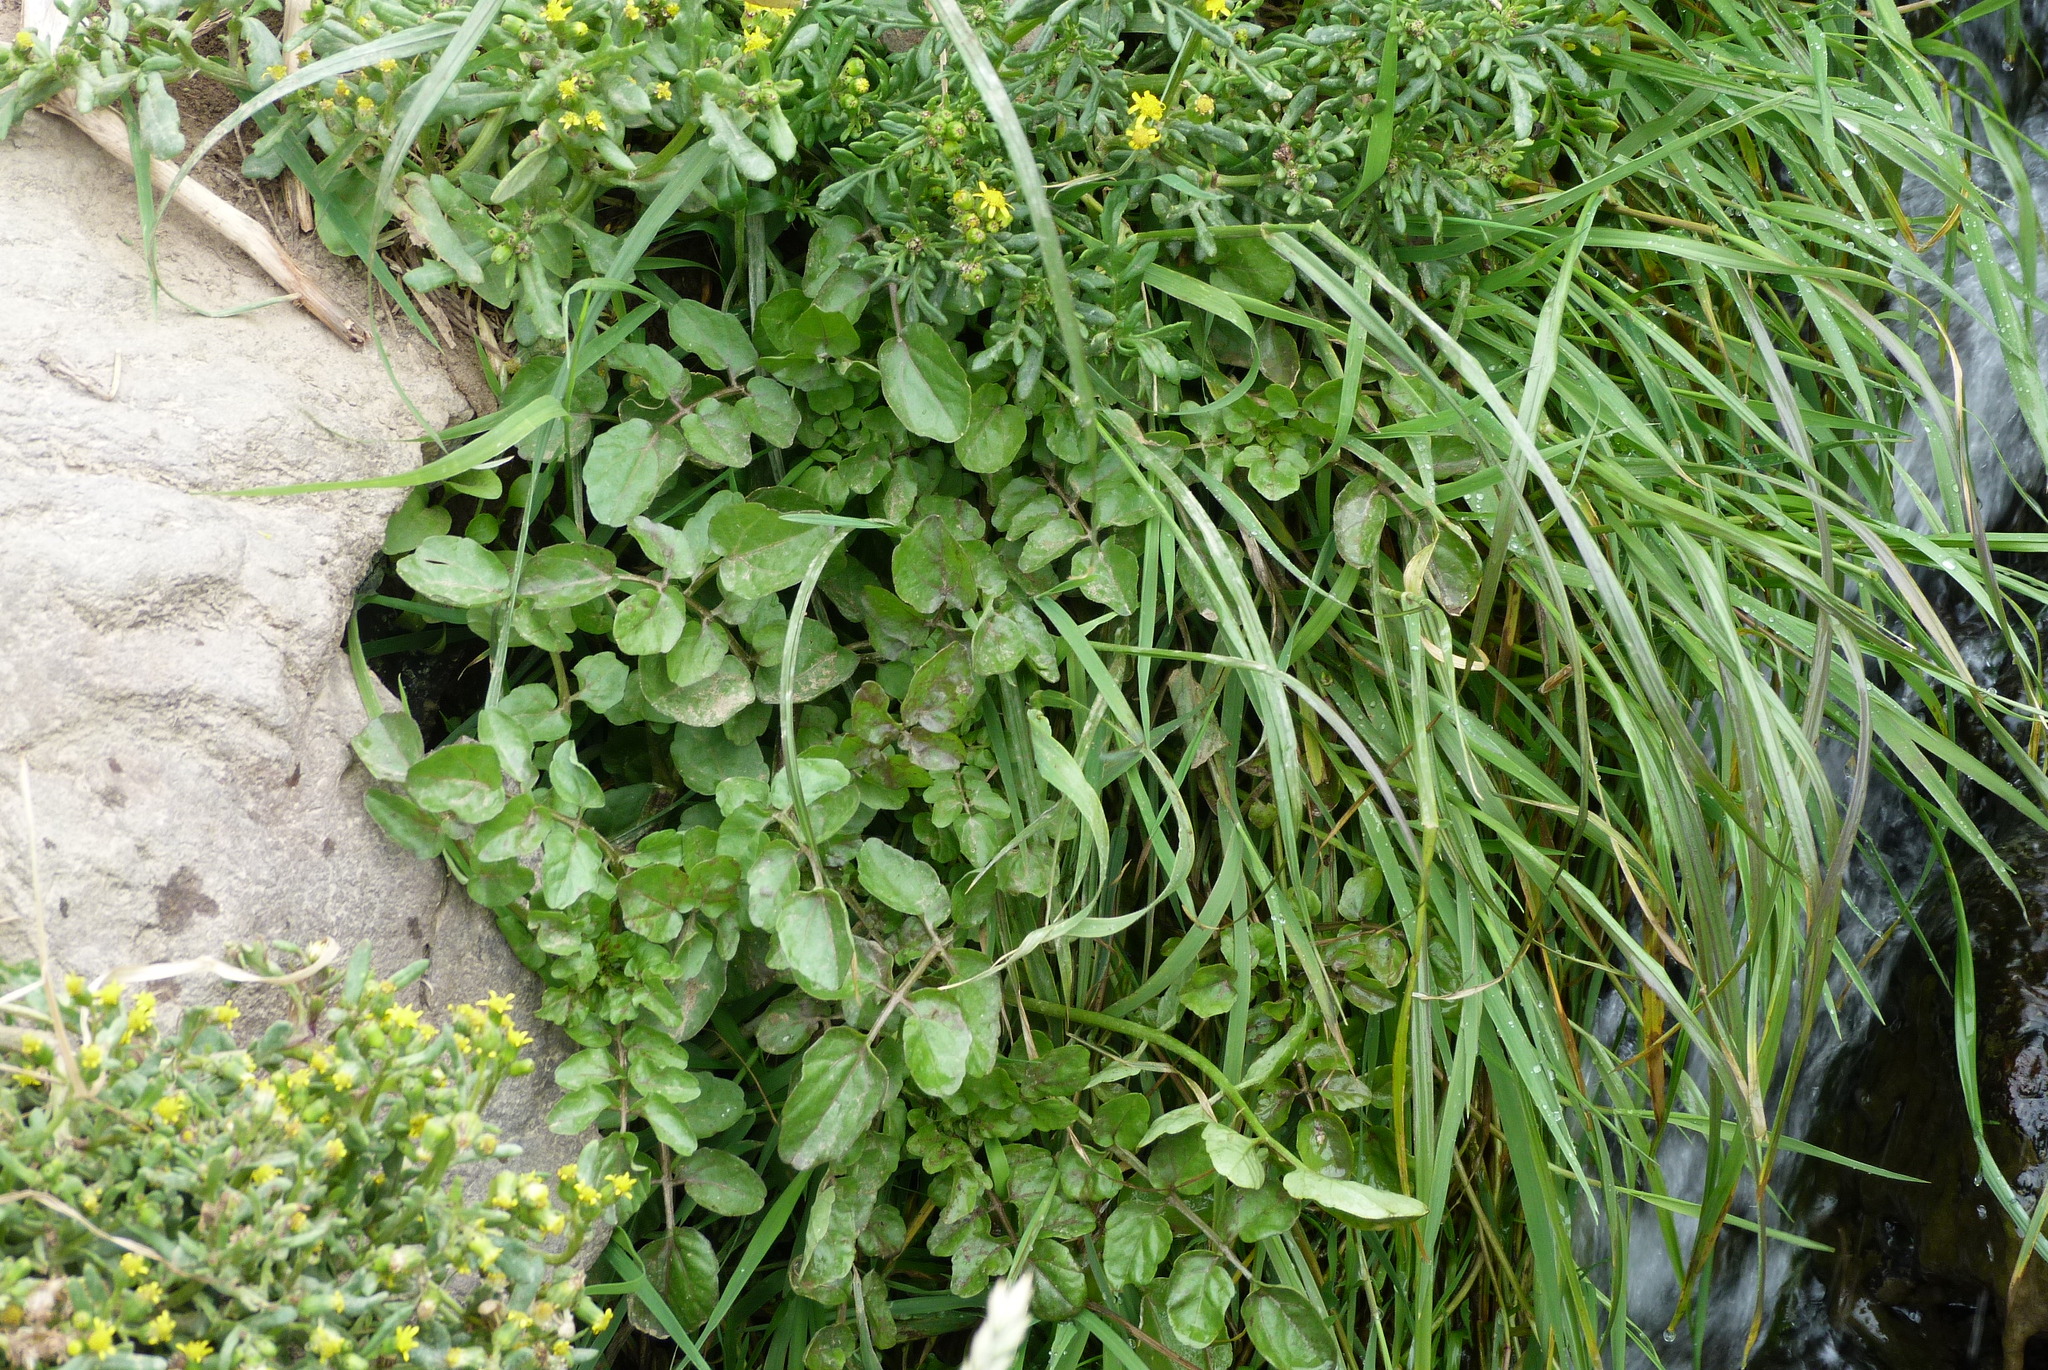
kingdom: Plantae
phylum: Tracheophyta
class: Magnoliopsida
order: Brassicales
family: Brassicaceae
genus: Nasturtium
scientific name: Nasturtium officinale
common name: Watercress
